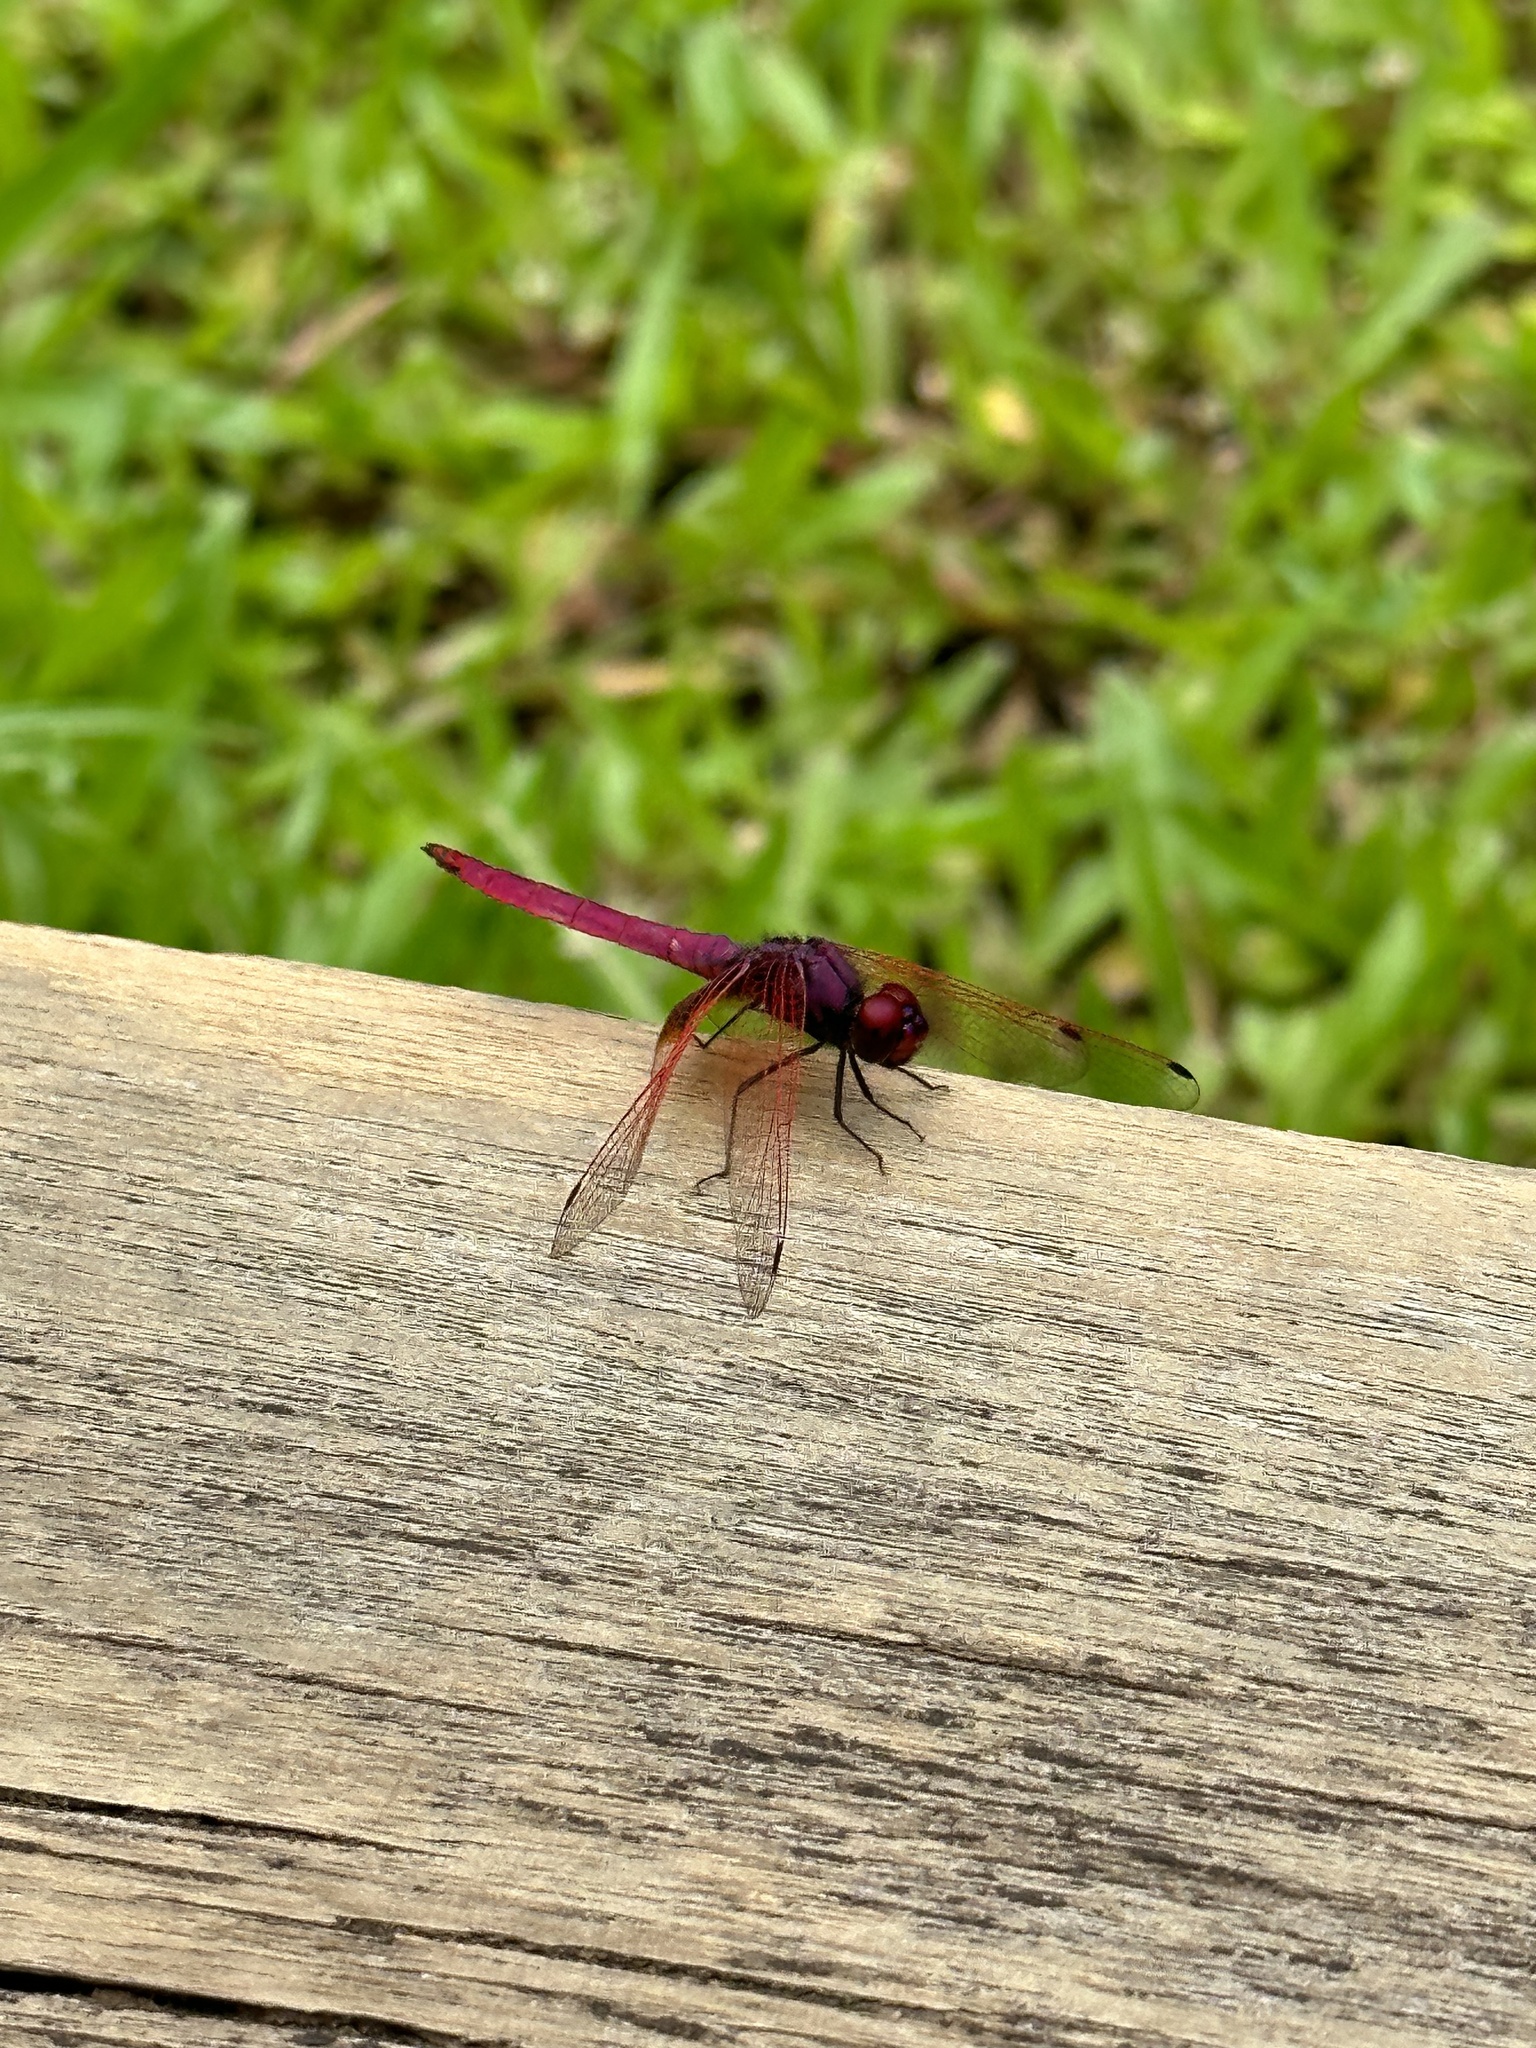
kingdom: Animalia
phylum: Arthropoda
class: Insecta
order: Odonata
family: Libellulidae
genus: Trithemis
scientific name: Trithemis aurora
